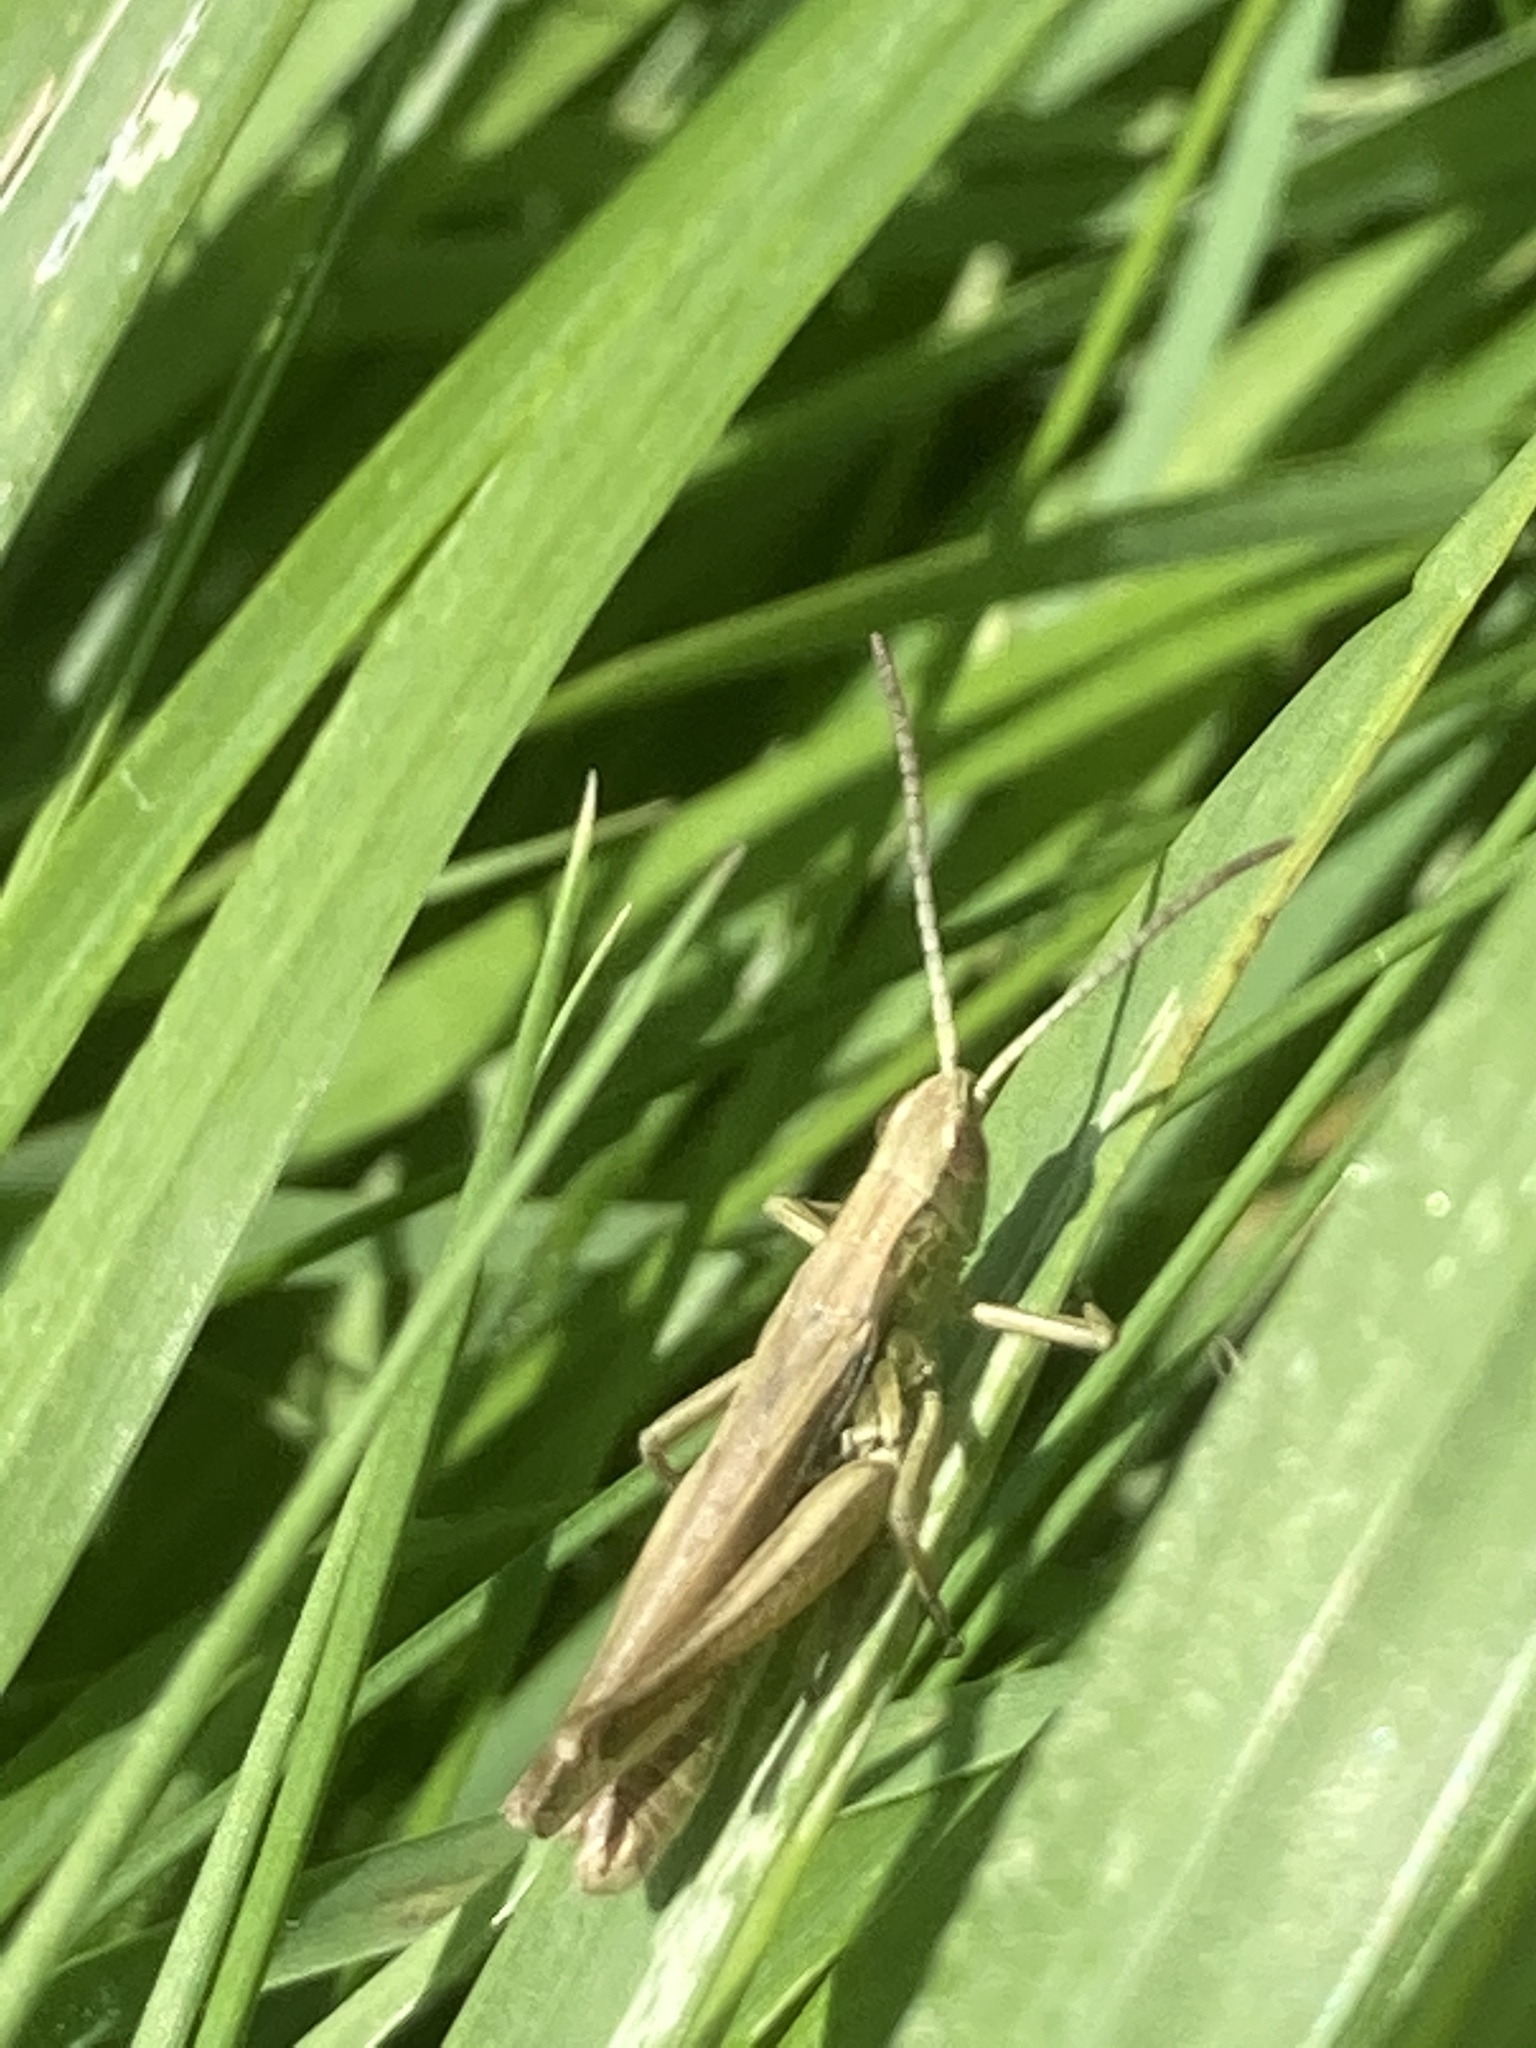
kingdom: Animalia
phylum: Arthropoda
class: Insecta
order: Orthoptera
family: Acrididae
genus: Chorthippus
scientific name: Chorthippus albomarginatus
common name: Lesser marsh grasshopper
